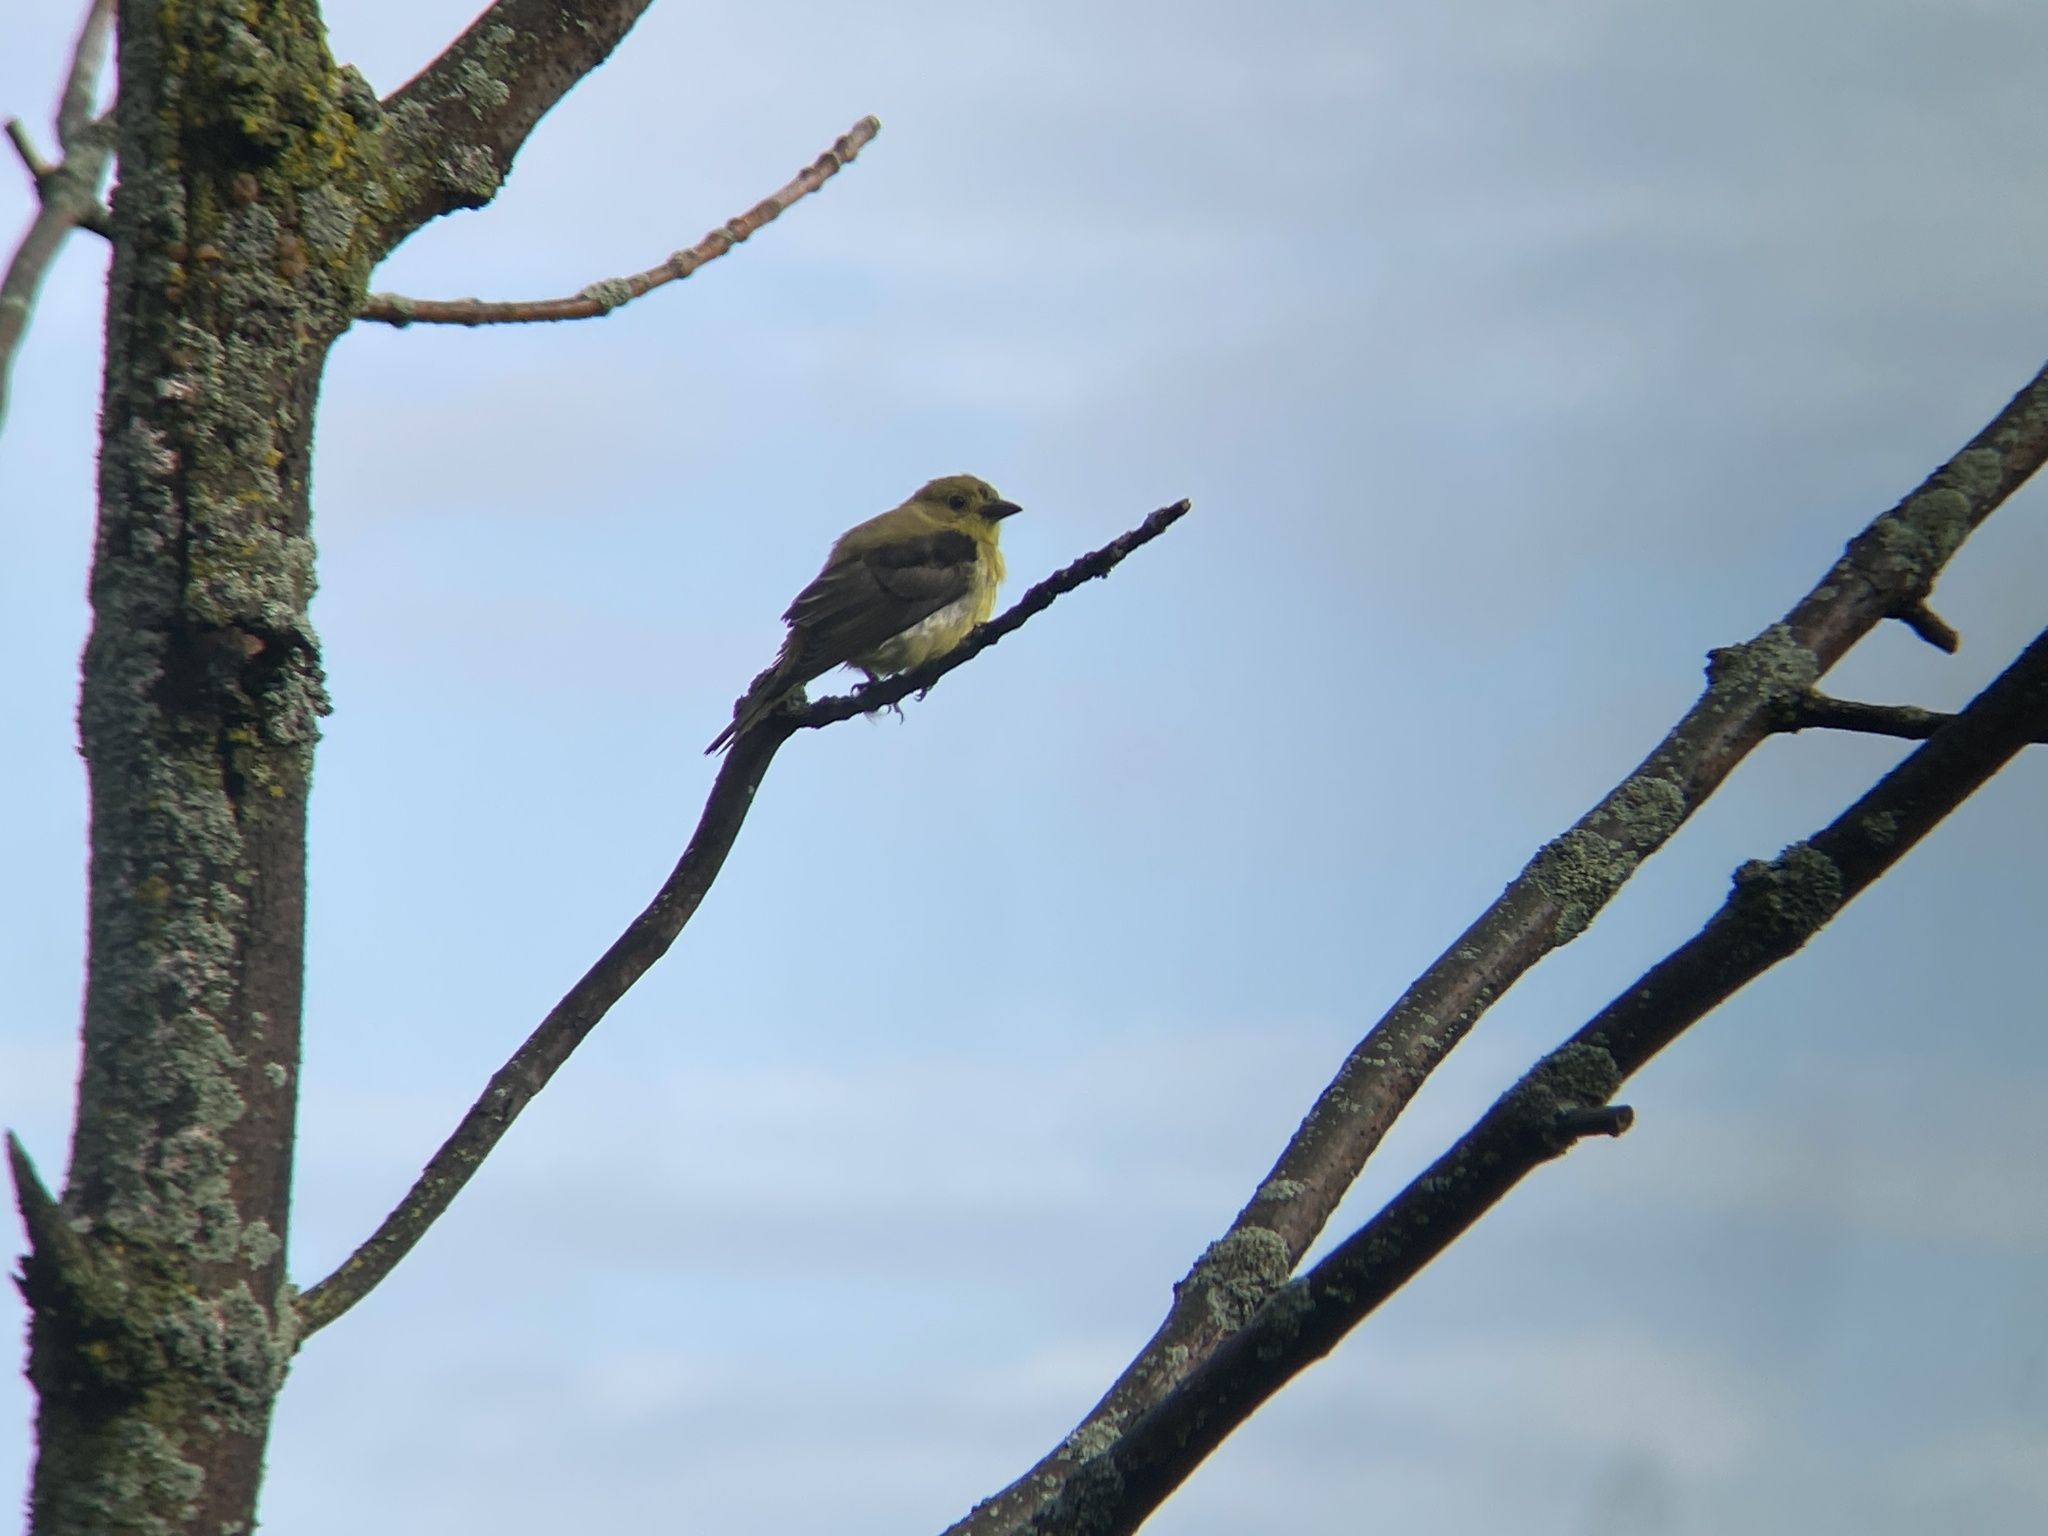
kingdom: Animalia
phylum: Chordata
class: Aves
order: Passeriformes
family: Cardinalidae
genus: Piranga
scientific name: Piranga olivacea
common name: Scarlet tanager
